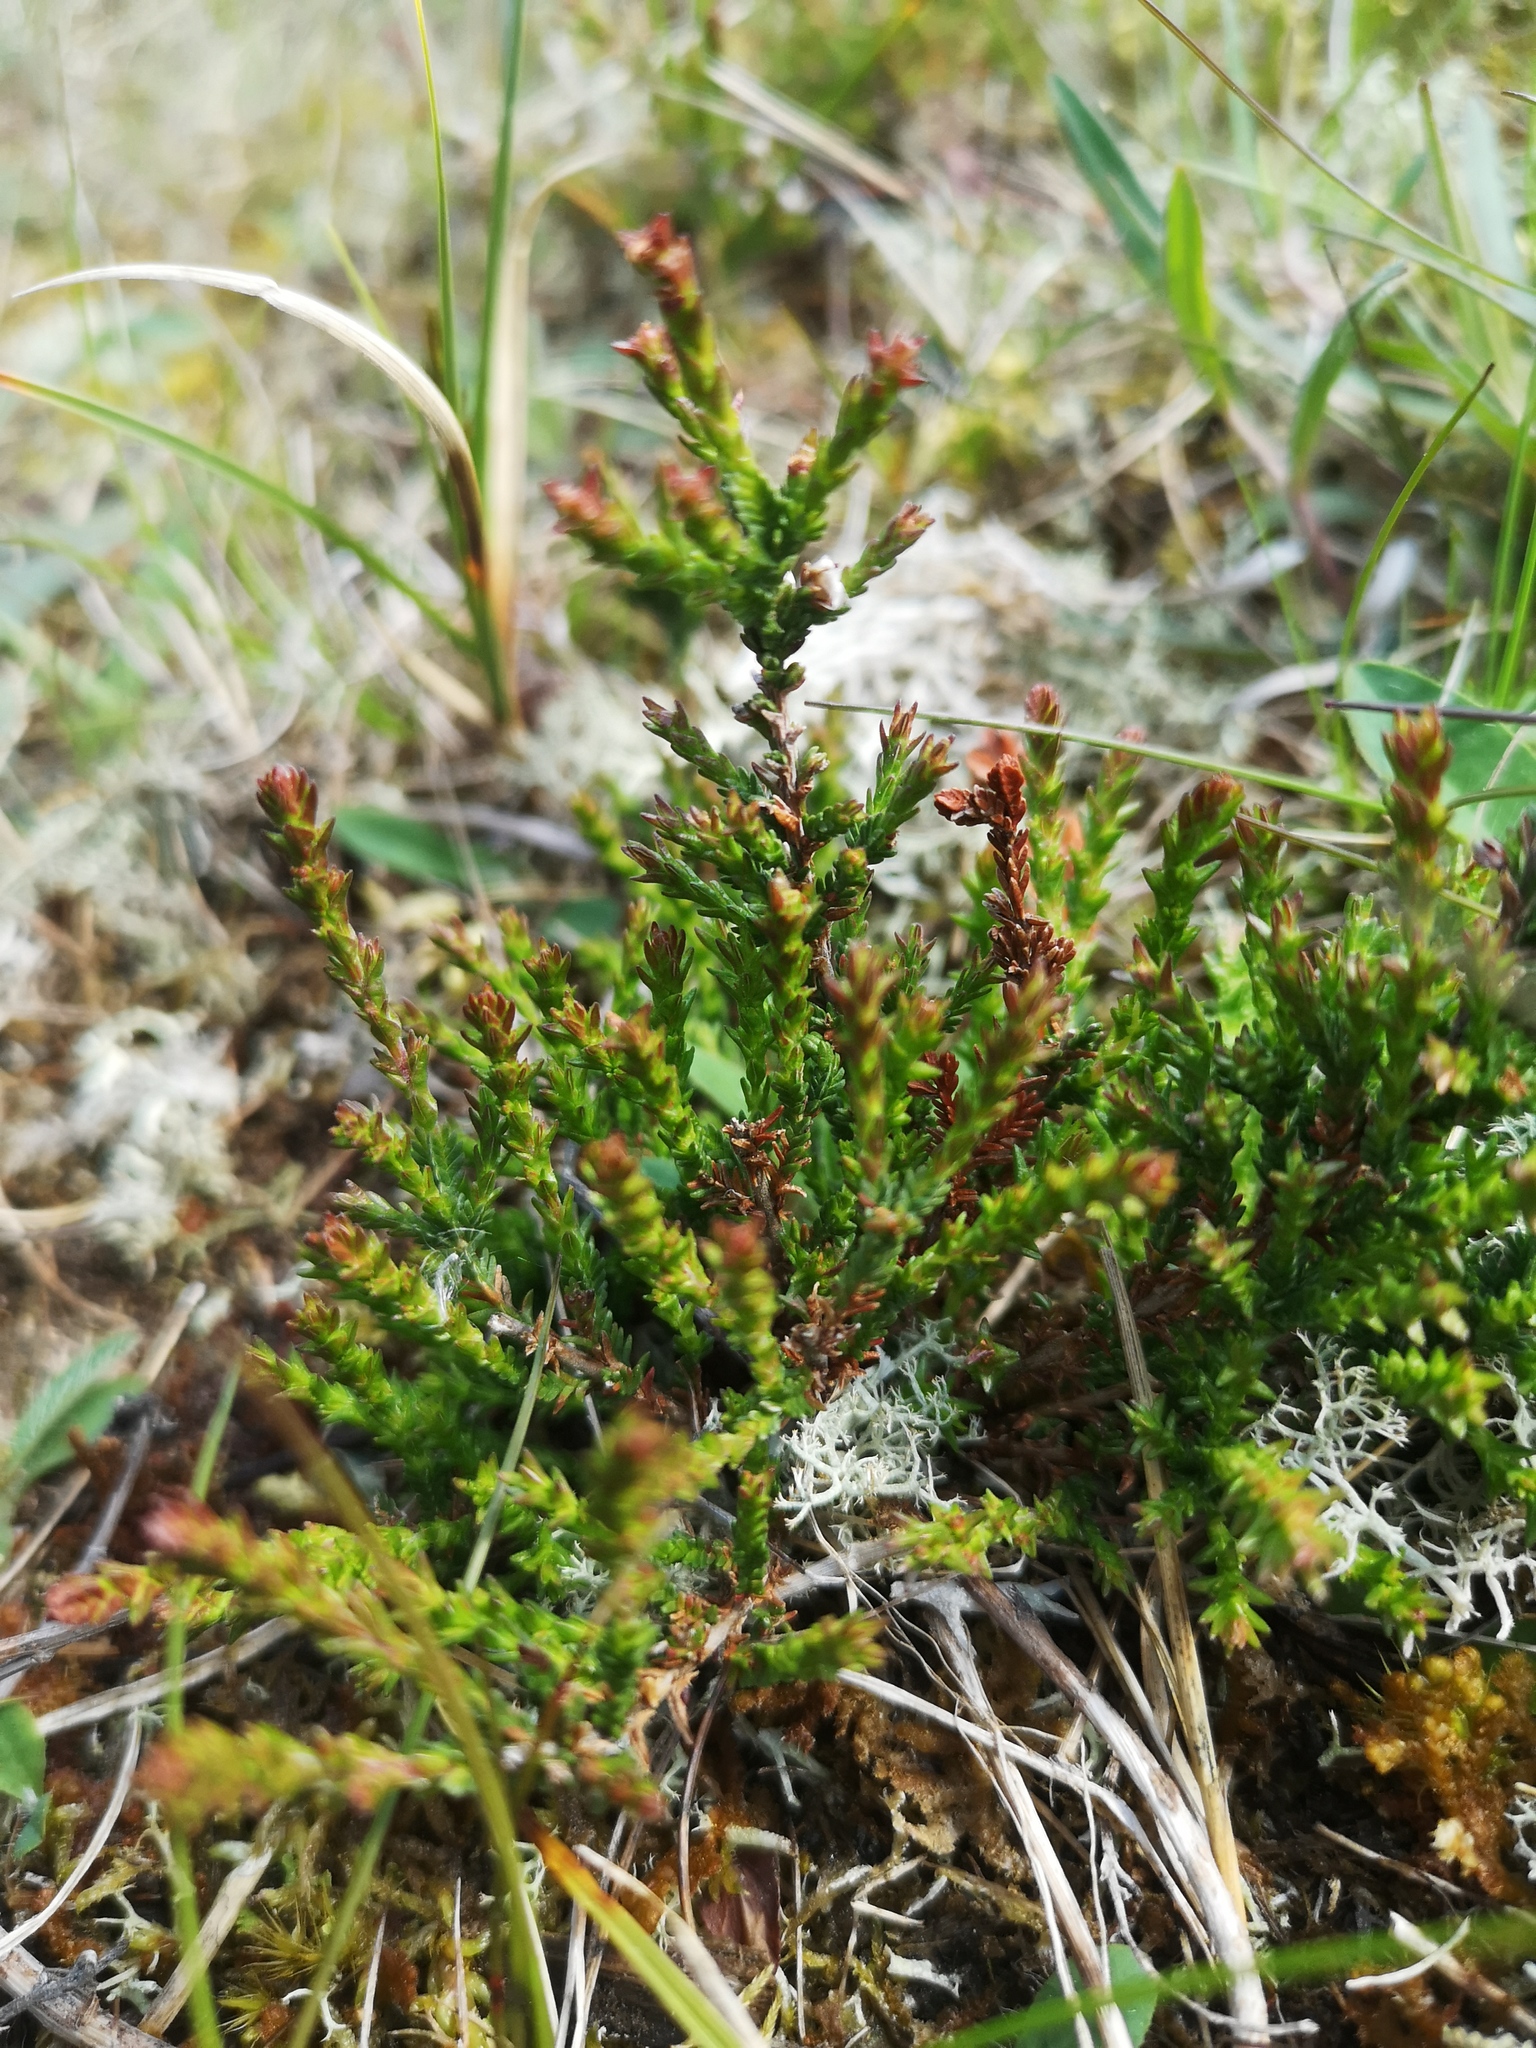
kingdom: Plantae
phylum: Tracheophyta
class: Magnoliopsida
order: Ericales
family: Ericaceae
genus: Calluna
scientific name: Calluna vulgaris
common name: Heather
